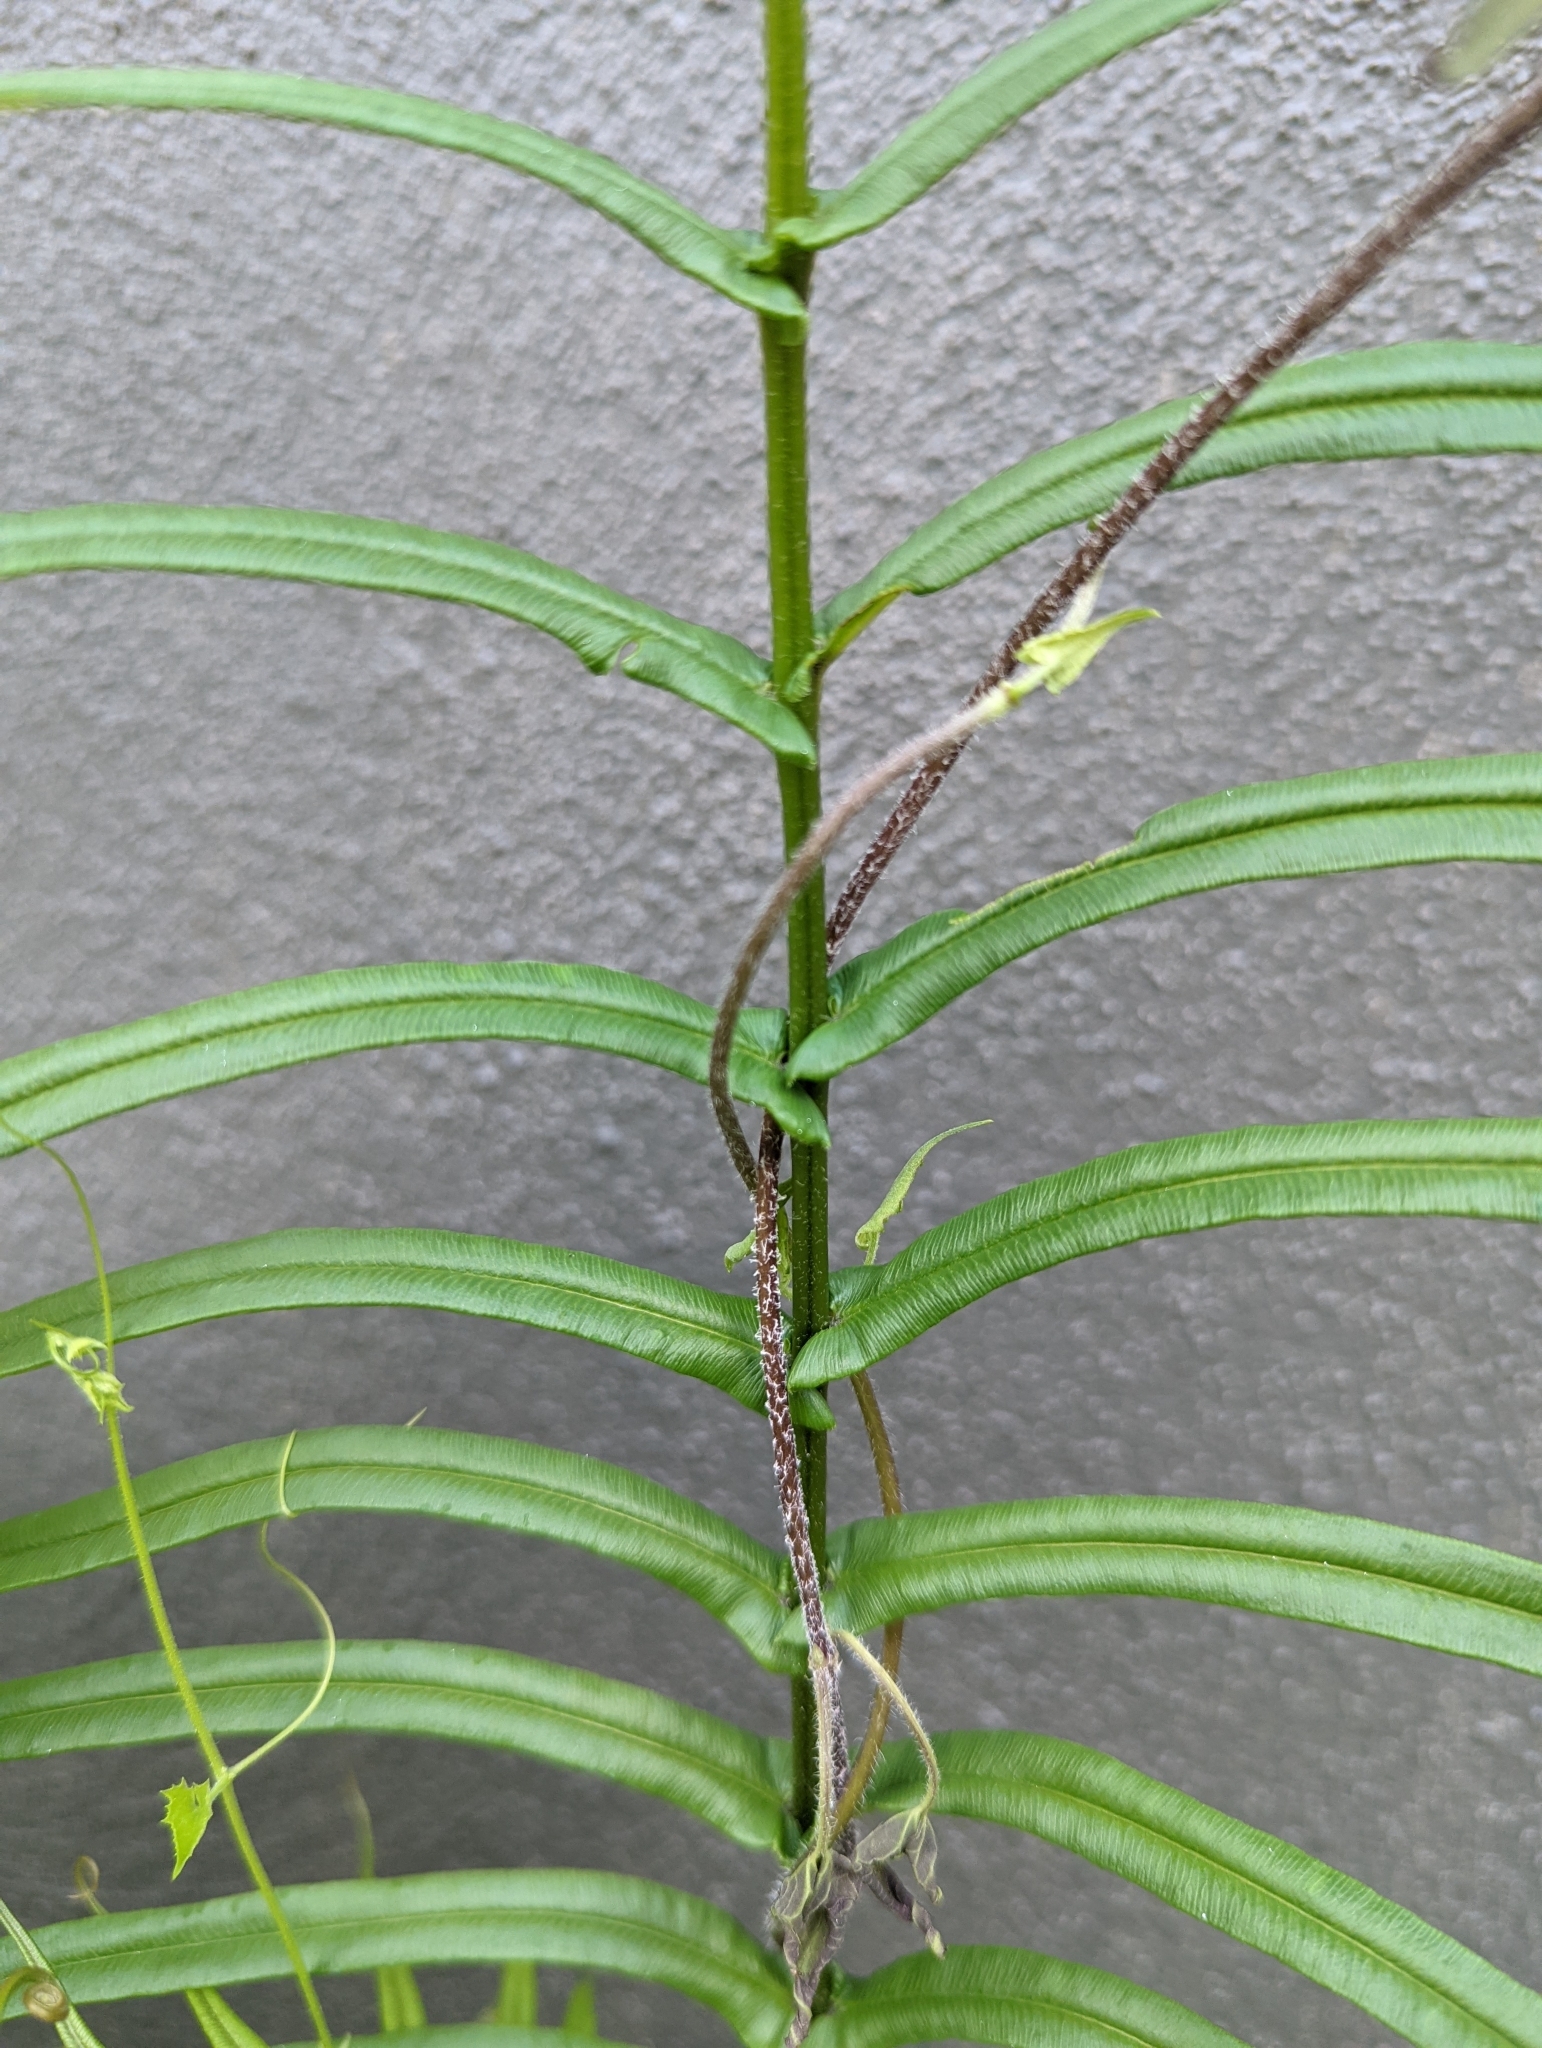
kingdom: Plantae
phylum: Tracheophyta
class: Polypodiopsida
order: Polypodiales
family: Pteridaceae
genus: Pteris
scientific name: Pteris vittata
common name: Ladder brake
